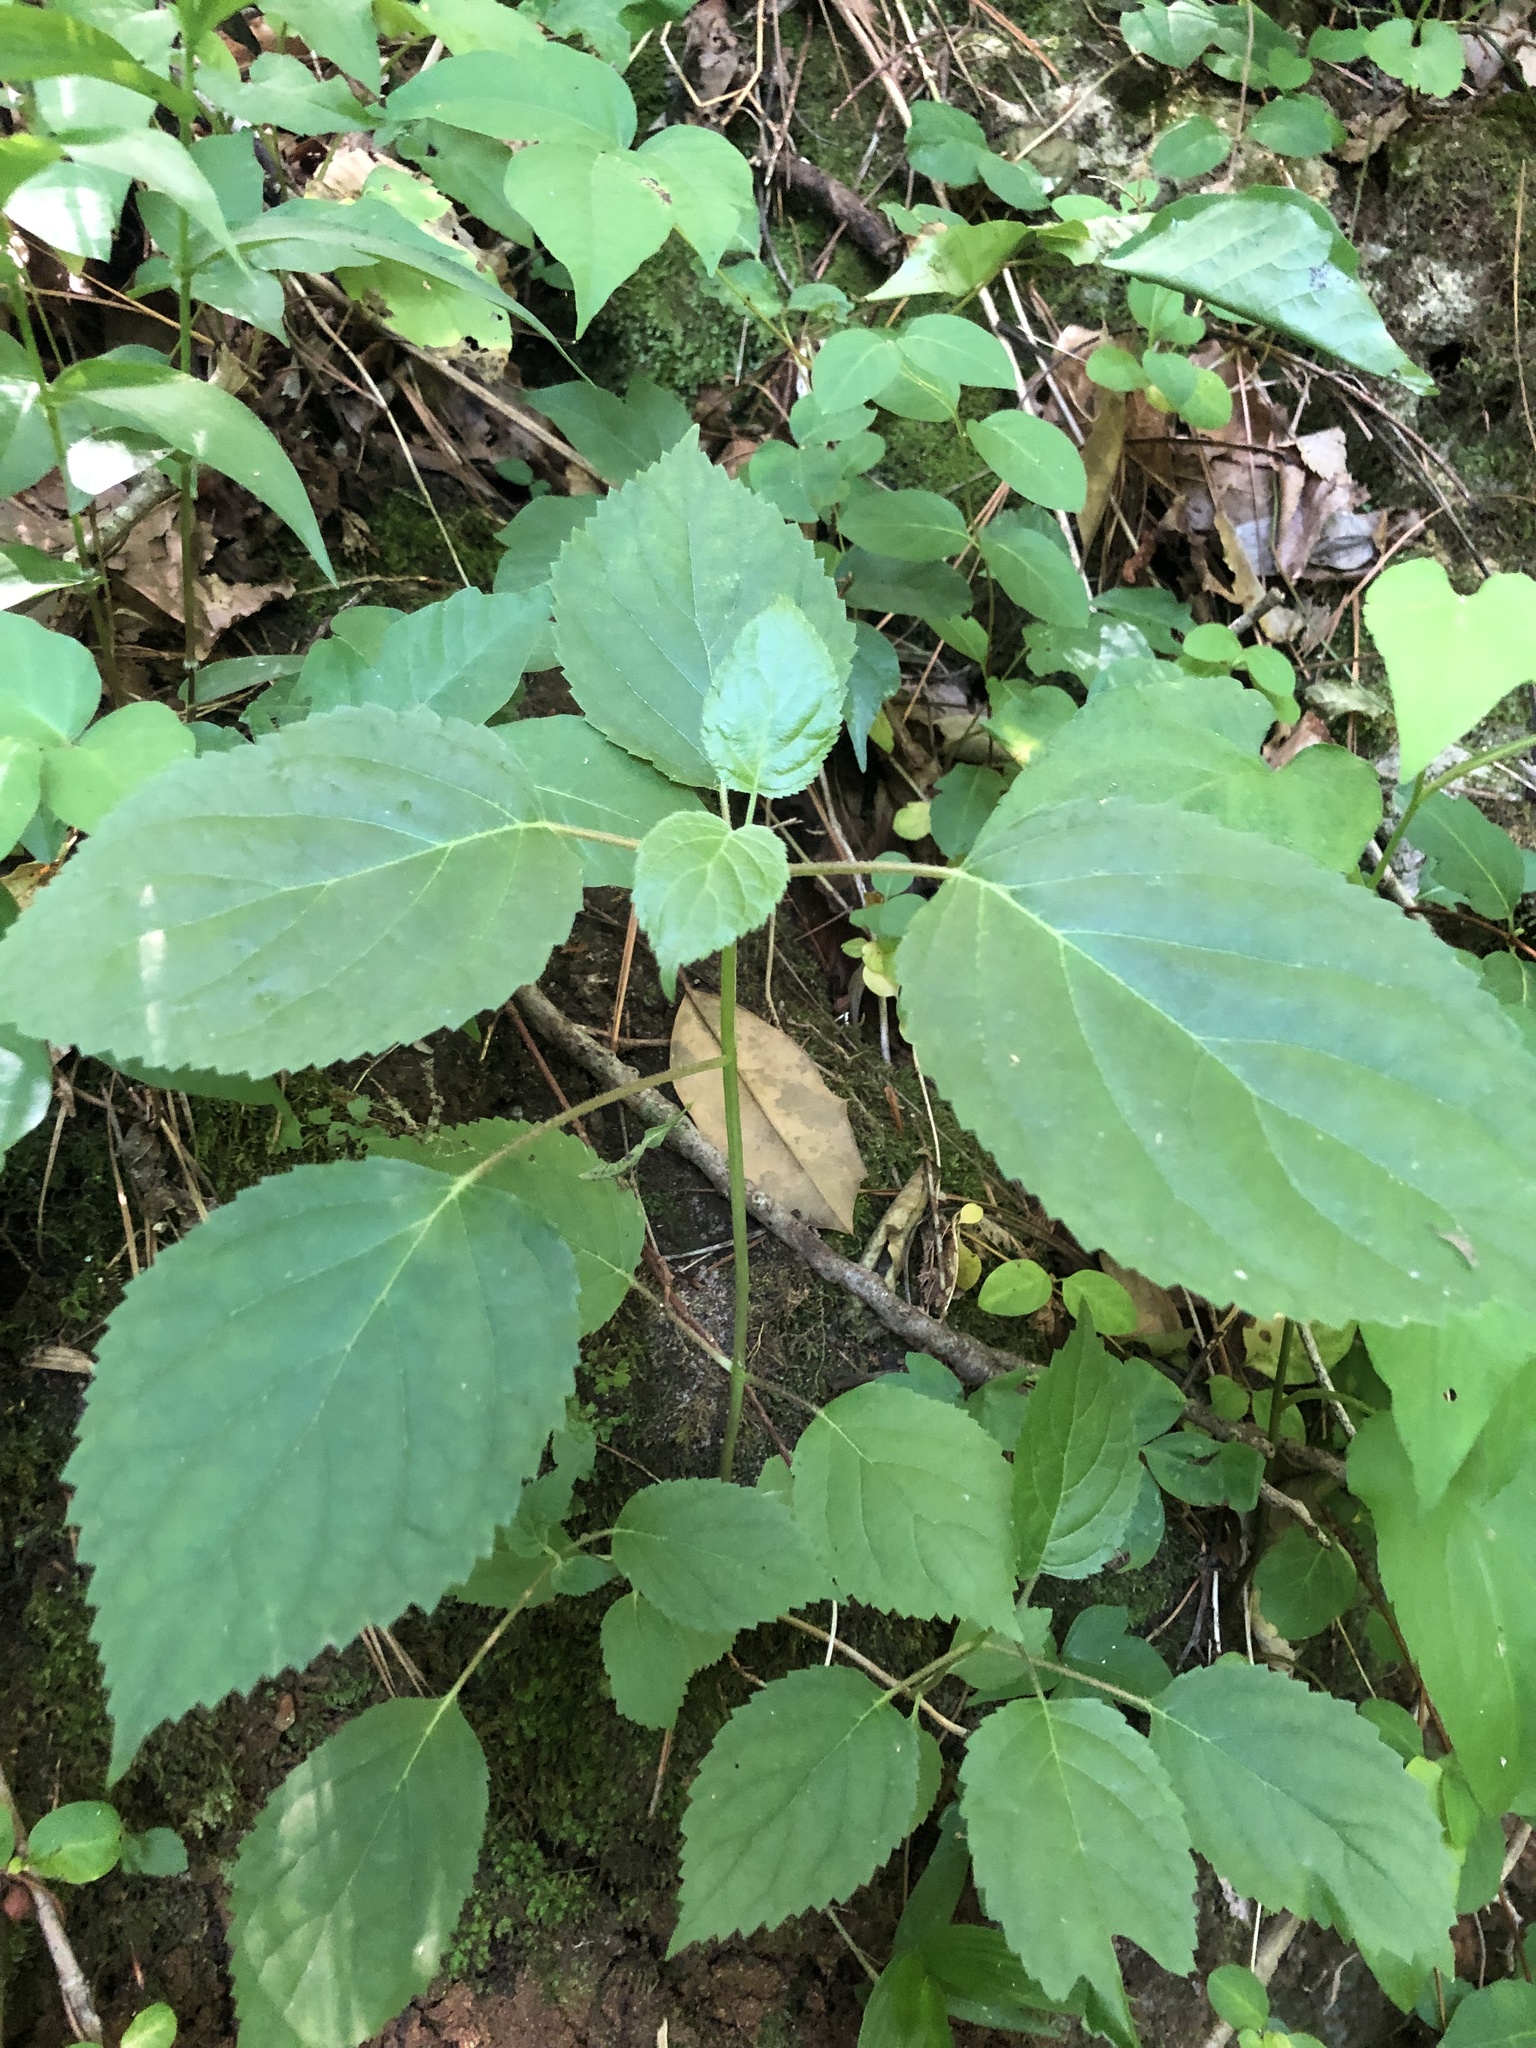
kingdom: Plantae
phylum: Tracheophyta
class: Magnoliopsida
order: Cornales
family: Hydrangeaceae
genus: Hydrangea
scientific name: Hydrangea arborescens
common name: Sevenbark
